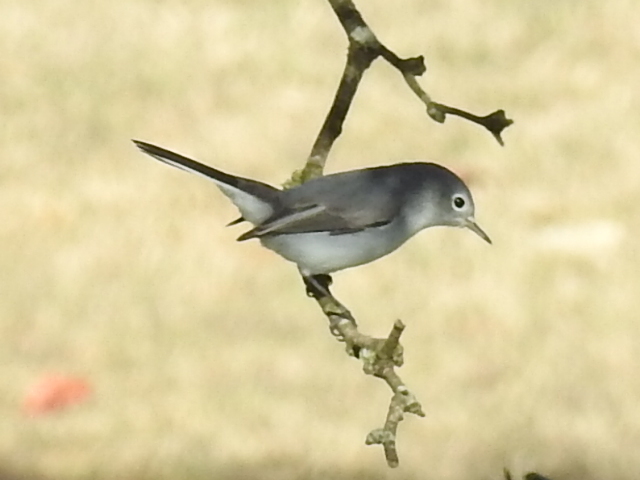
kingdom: Animalia
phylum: Chordata
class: Aves
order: Passeriformes
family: Polioptilidae
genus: Polioptila
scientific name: Polioptila caerulea
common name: Blue-gray gnatcatcher
